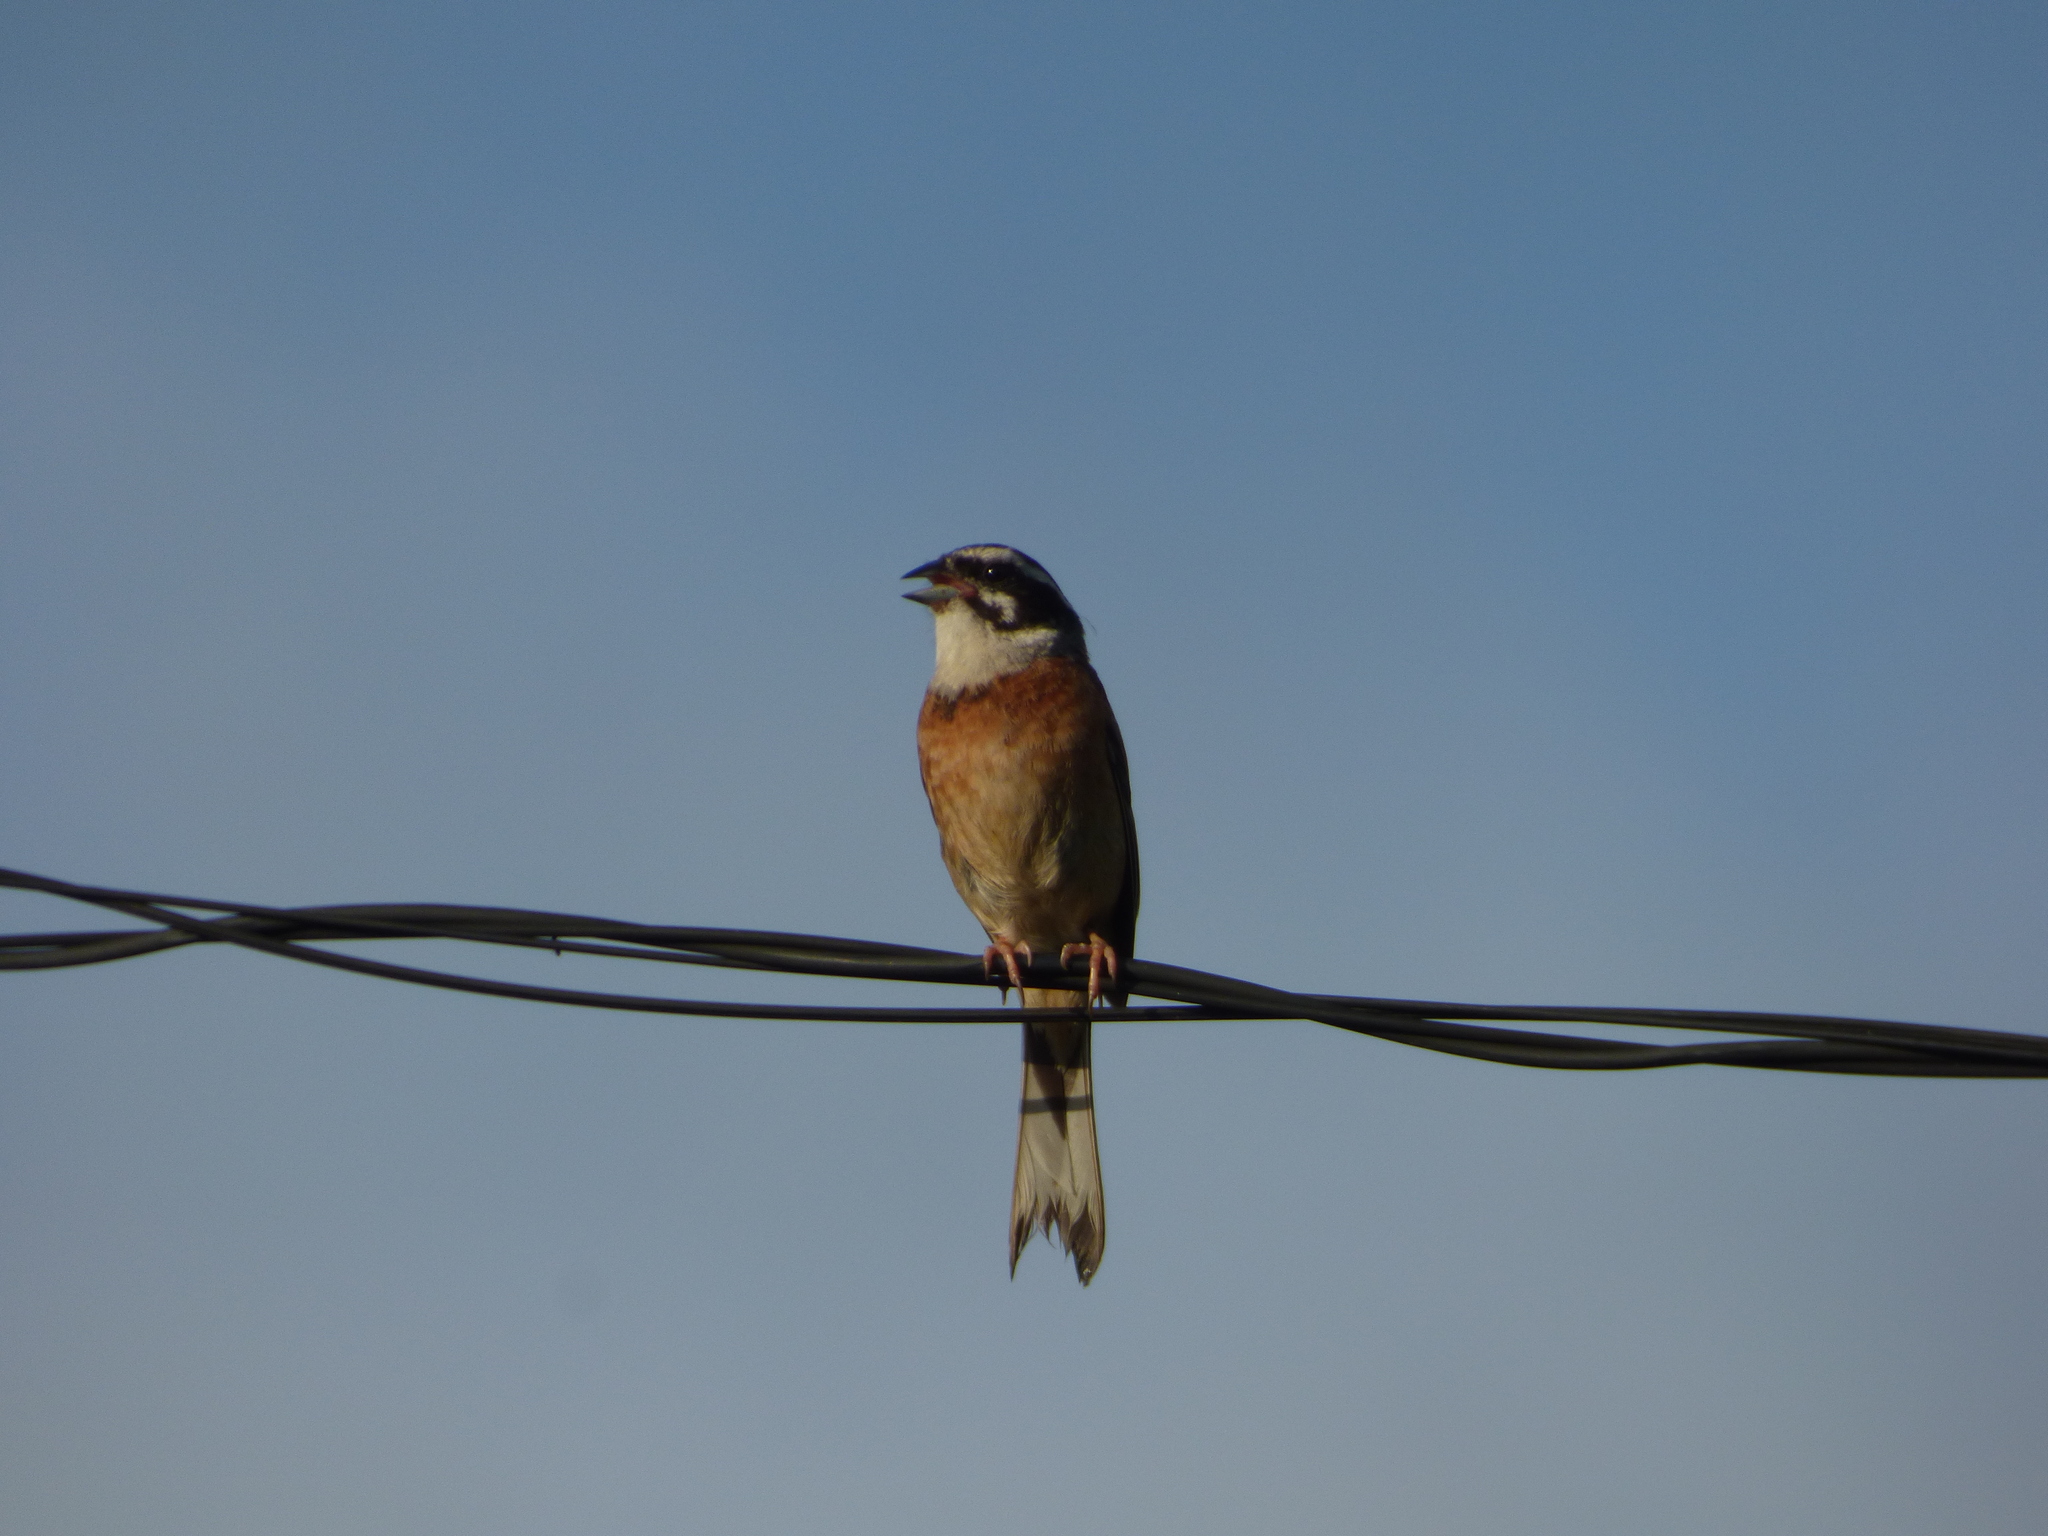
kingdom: Animalia
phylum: Chordata
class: Aves
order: Passeriformes
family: Emberizidae
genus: Emberiza
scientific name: Emberiza cioides
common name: Meadow bunting
